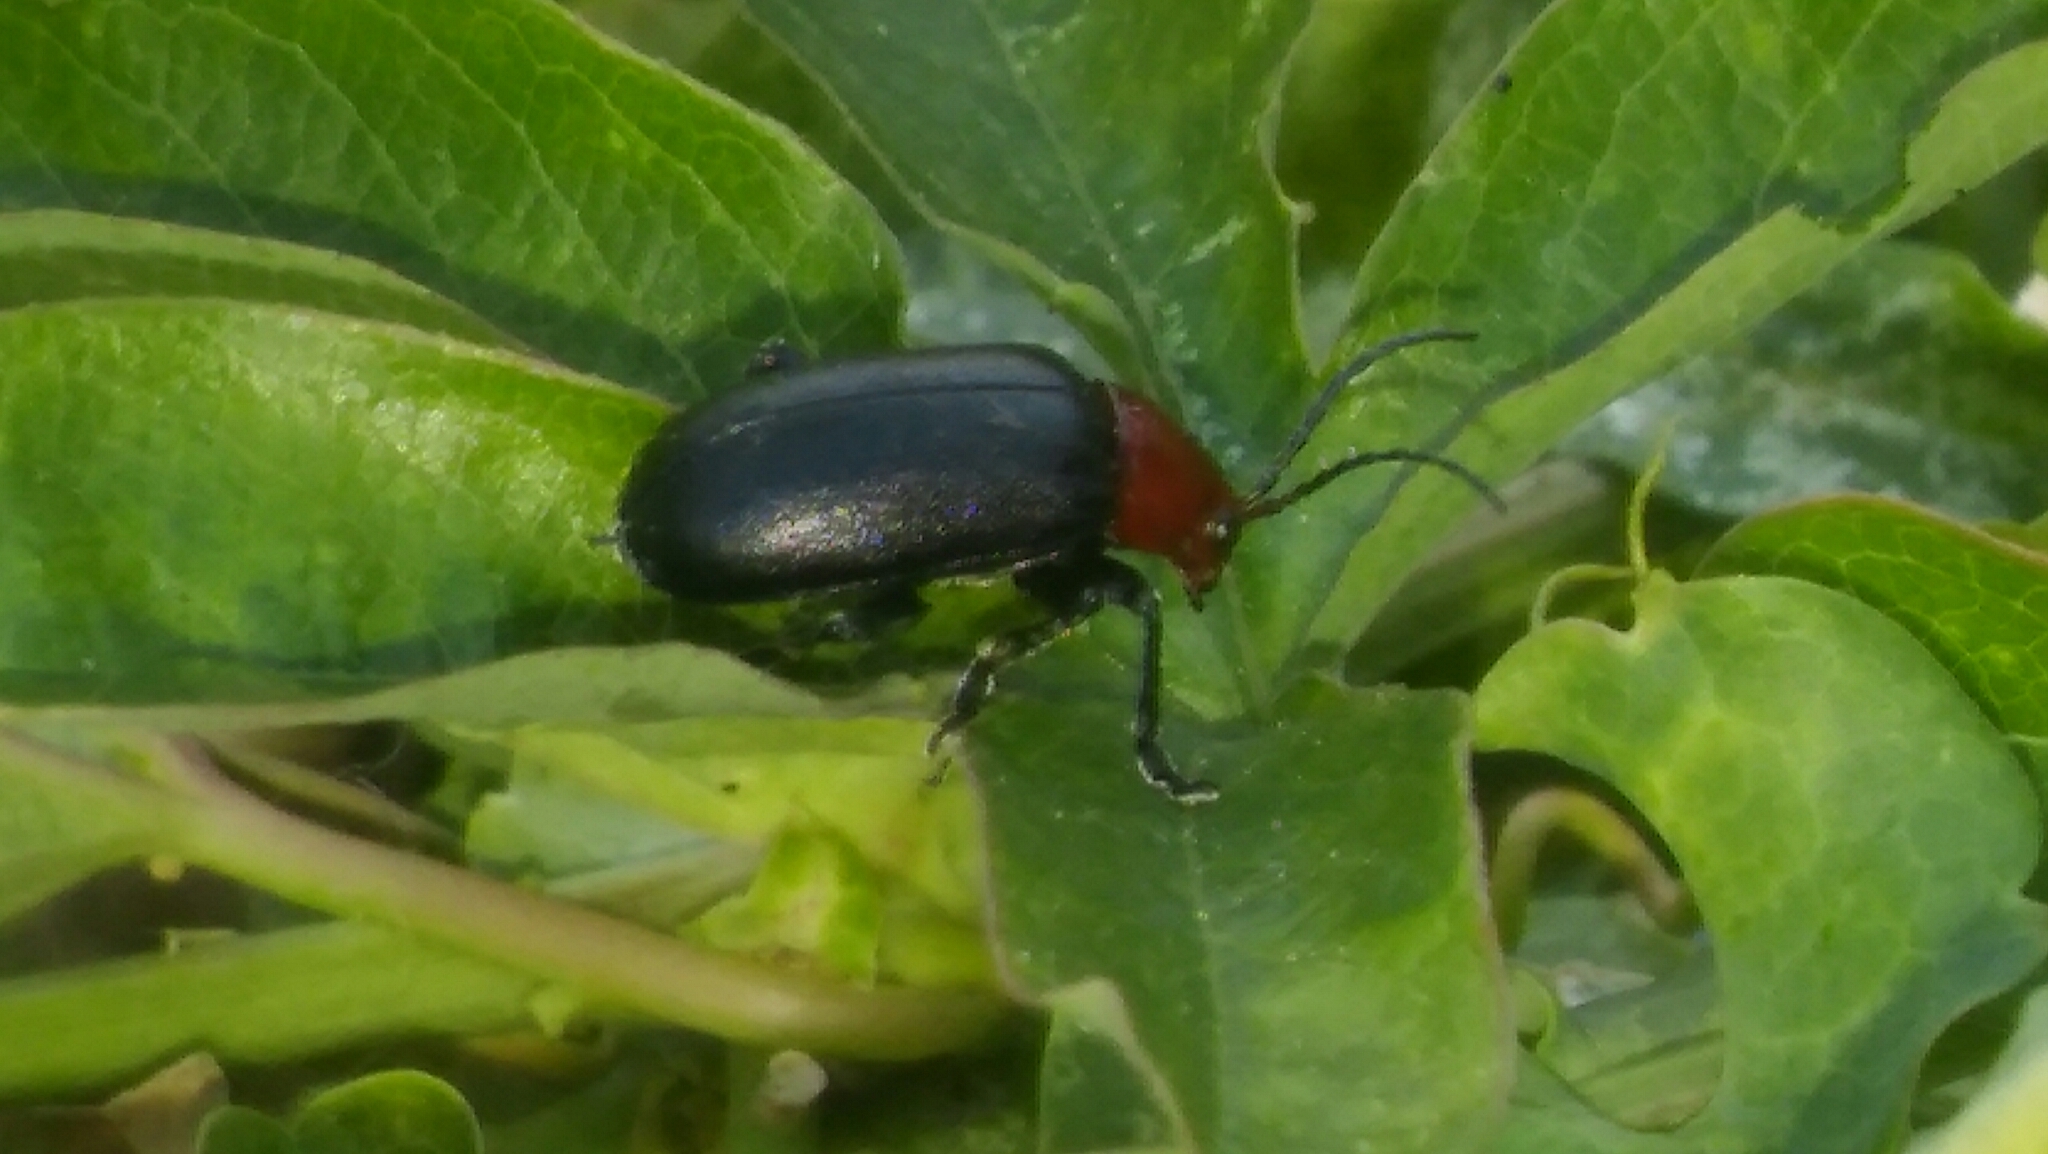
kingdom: Animalia
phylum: Arthropoda
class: Insecta
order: Coleoptera
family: Chrysomelidae
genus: Cacoscelis
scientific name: Cacoscelis
